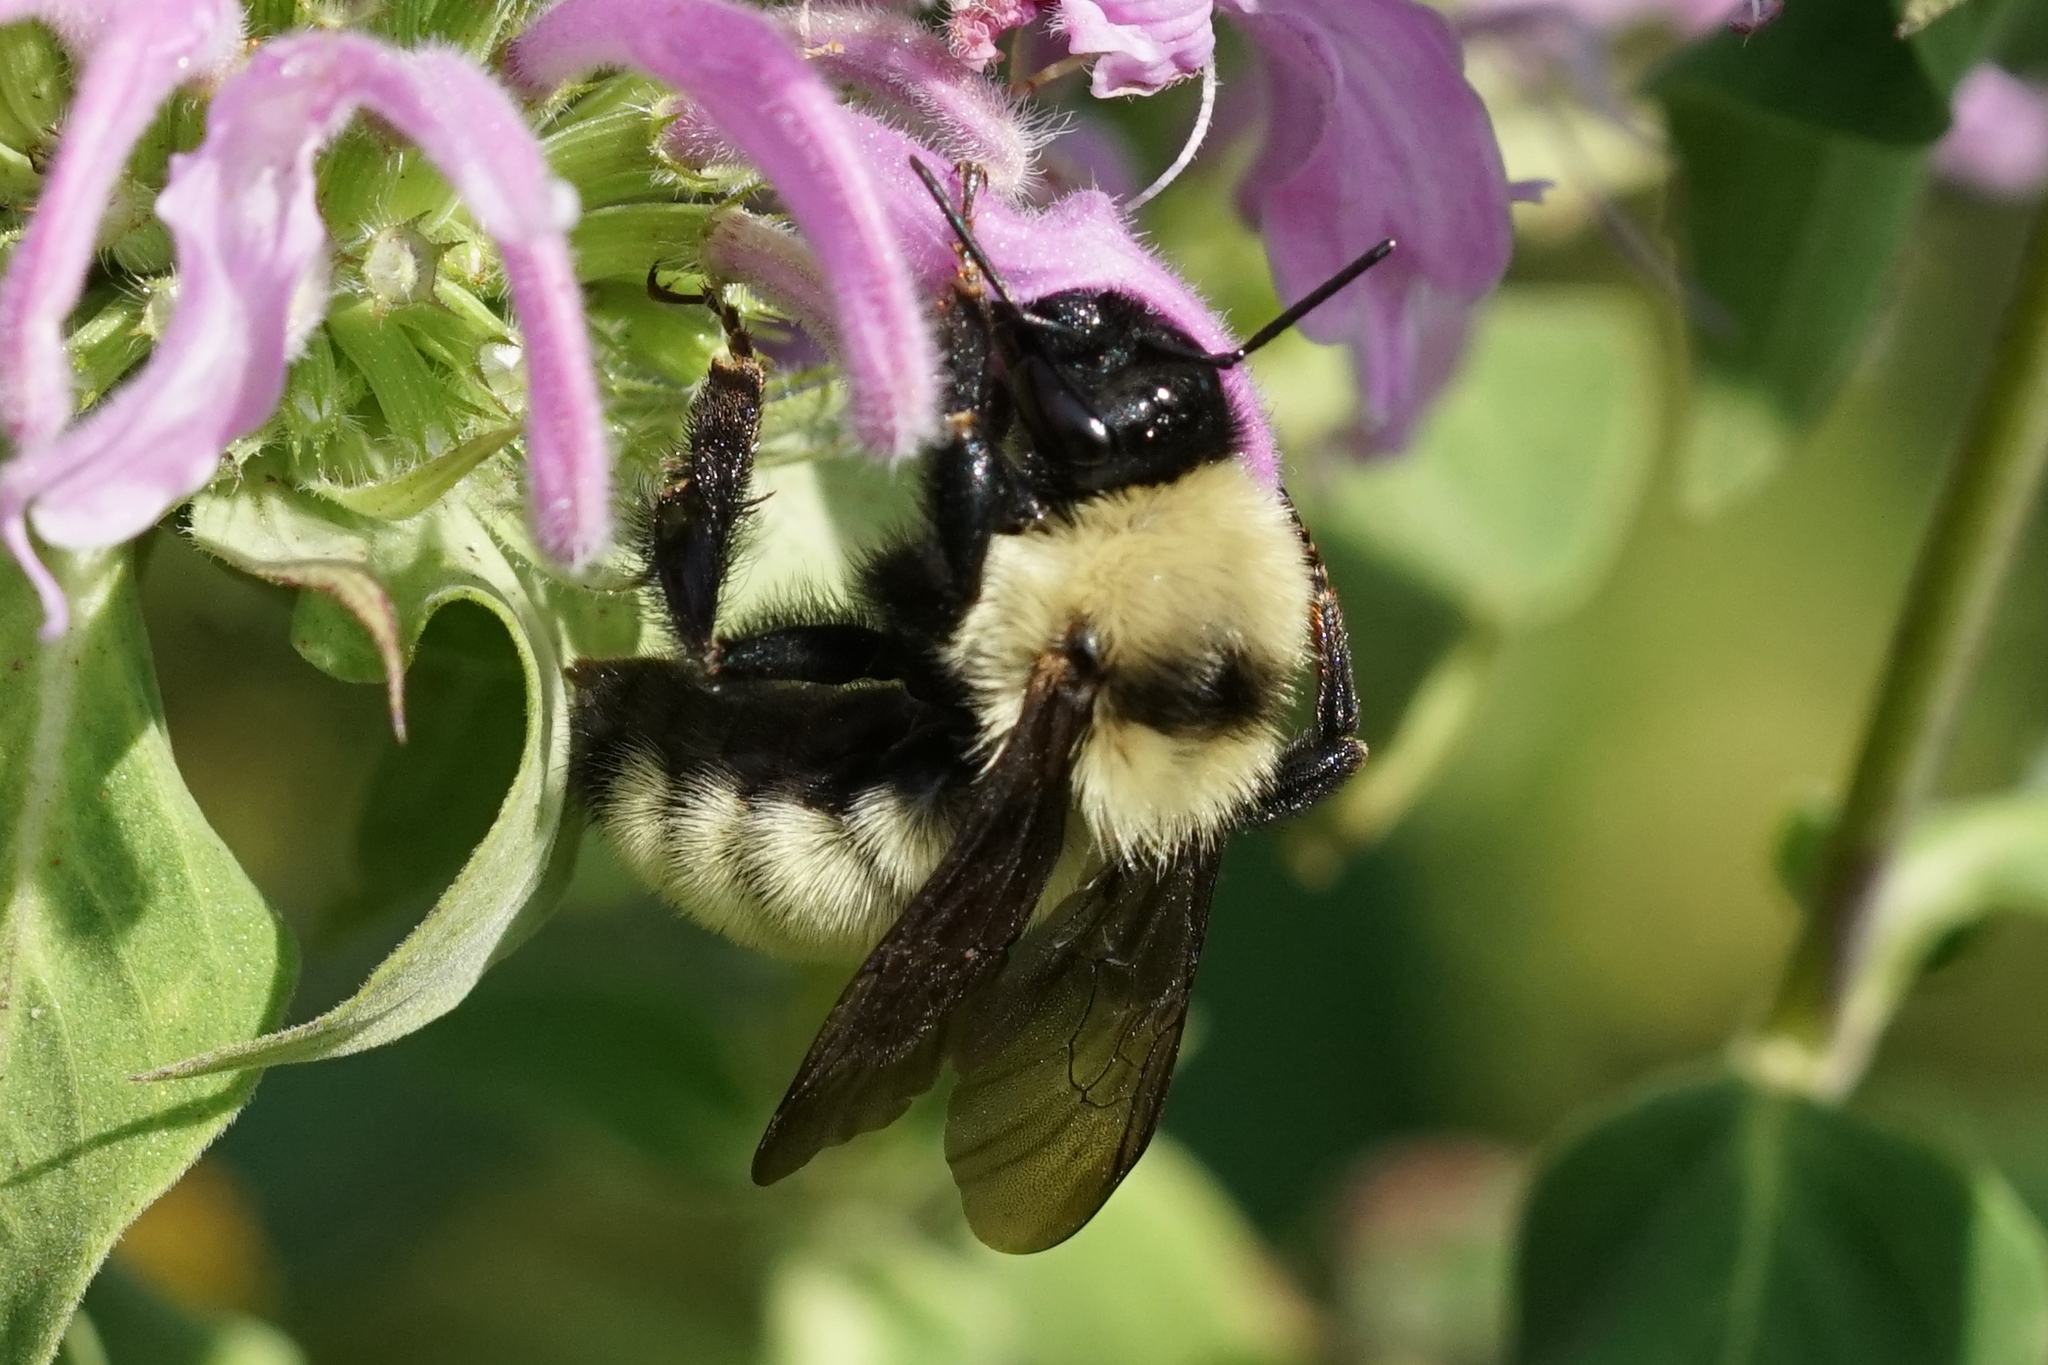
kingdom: Animalia
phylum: Arthropoda
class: Insecta
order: Hymenoptera
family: Apidae
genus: Bombus
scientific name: Bombus fervidus
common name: Yellow bumble bee
